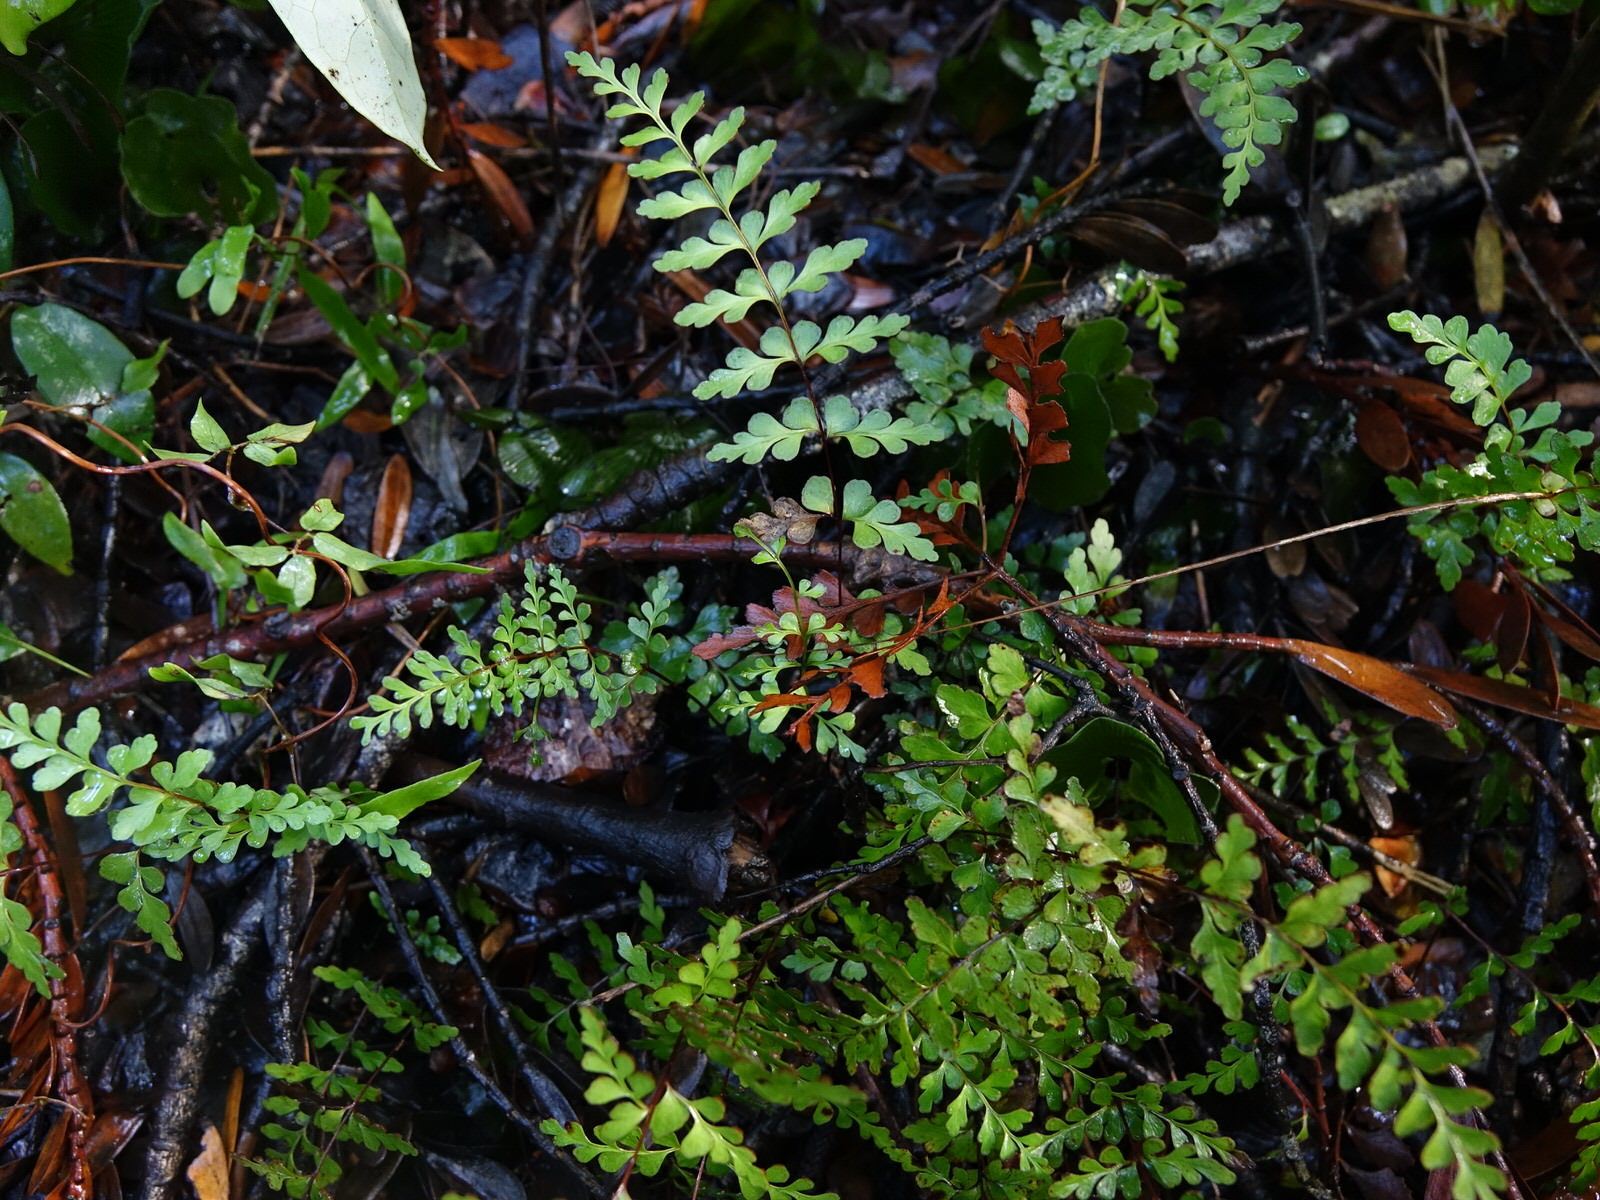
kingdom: Plantae
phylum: Tracheophyta
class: Polypodiopsida
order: Polypodiales
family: Lindsaeaceae
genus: Lindsaea
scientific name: Lindsaea trichomanoides
